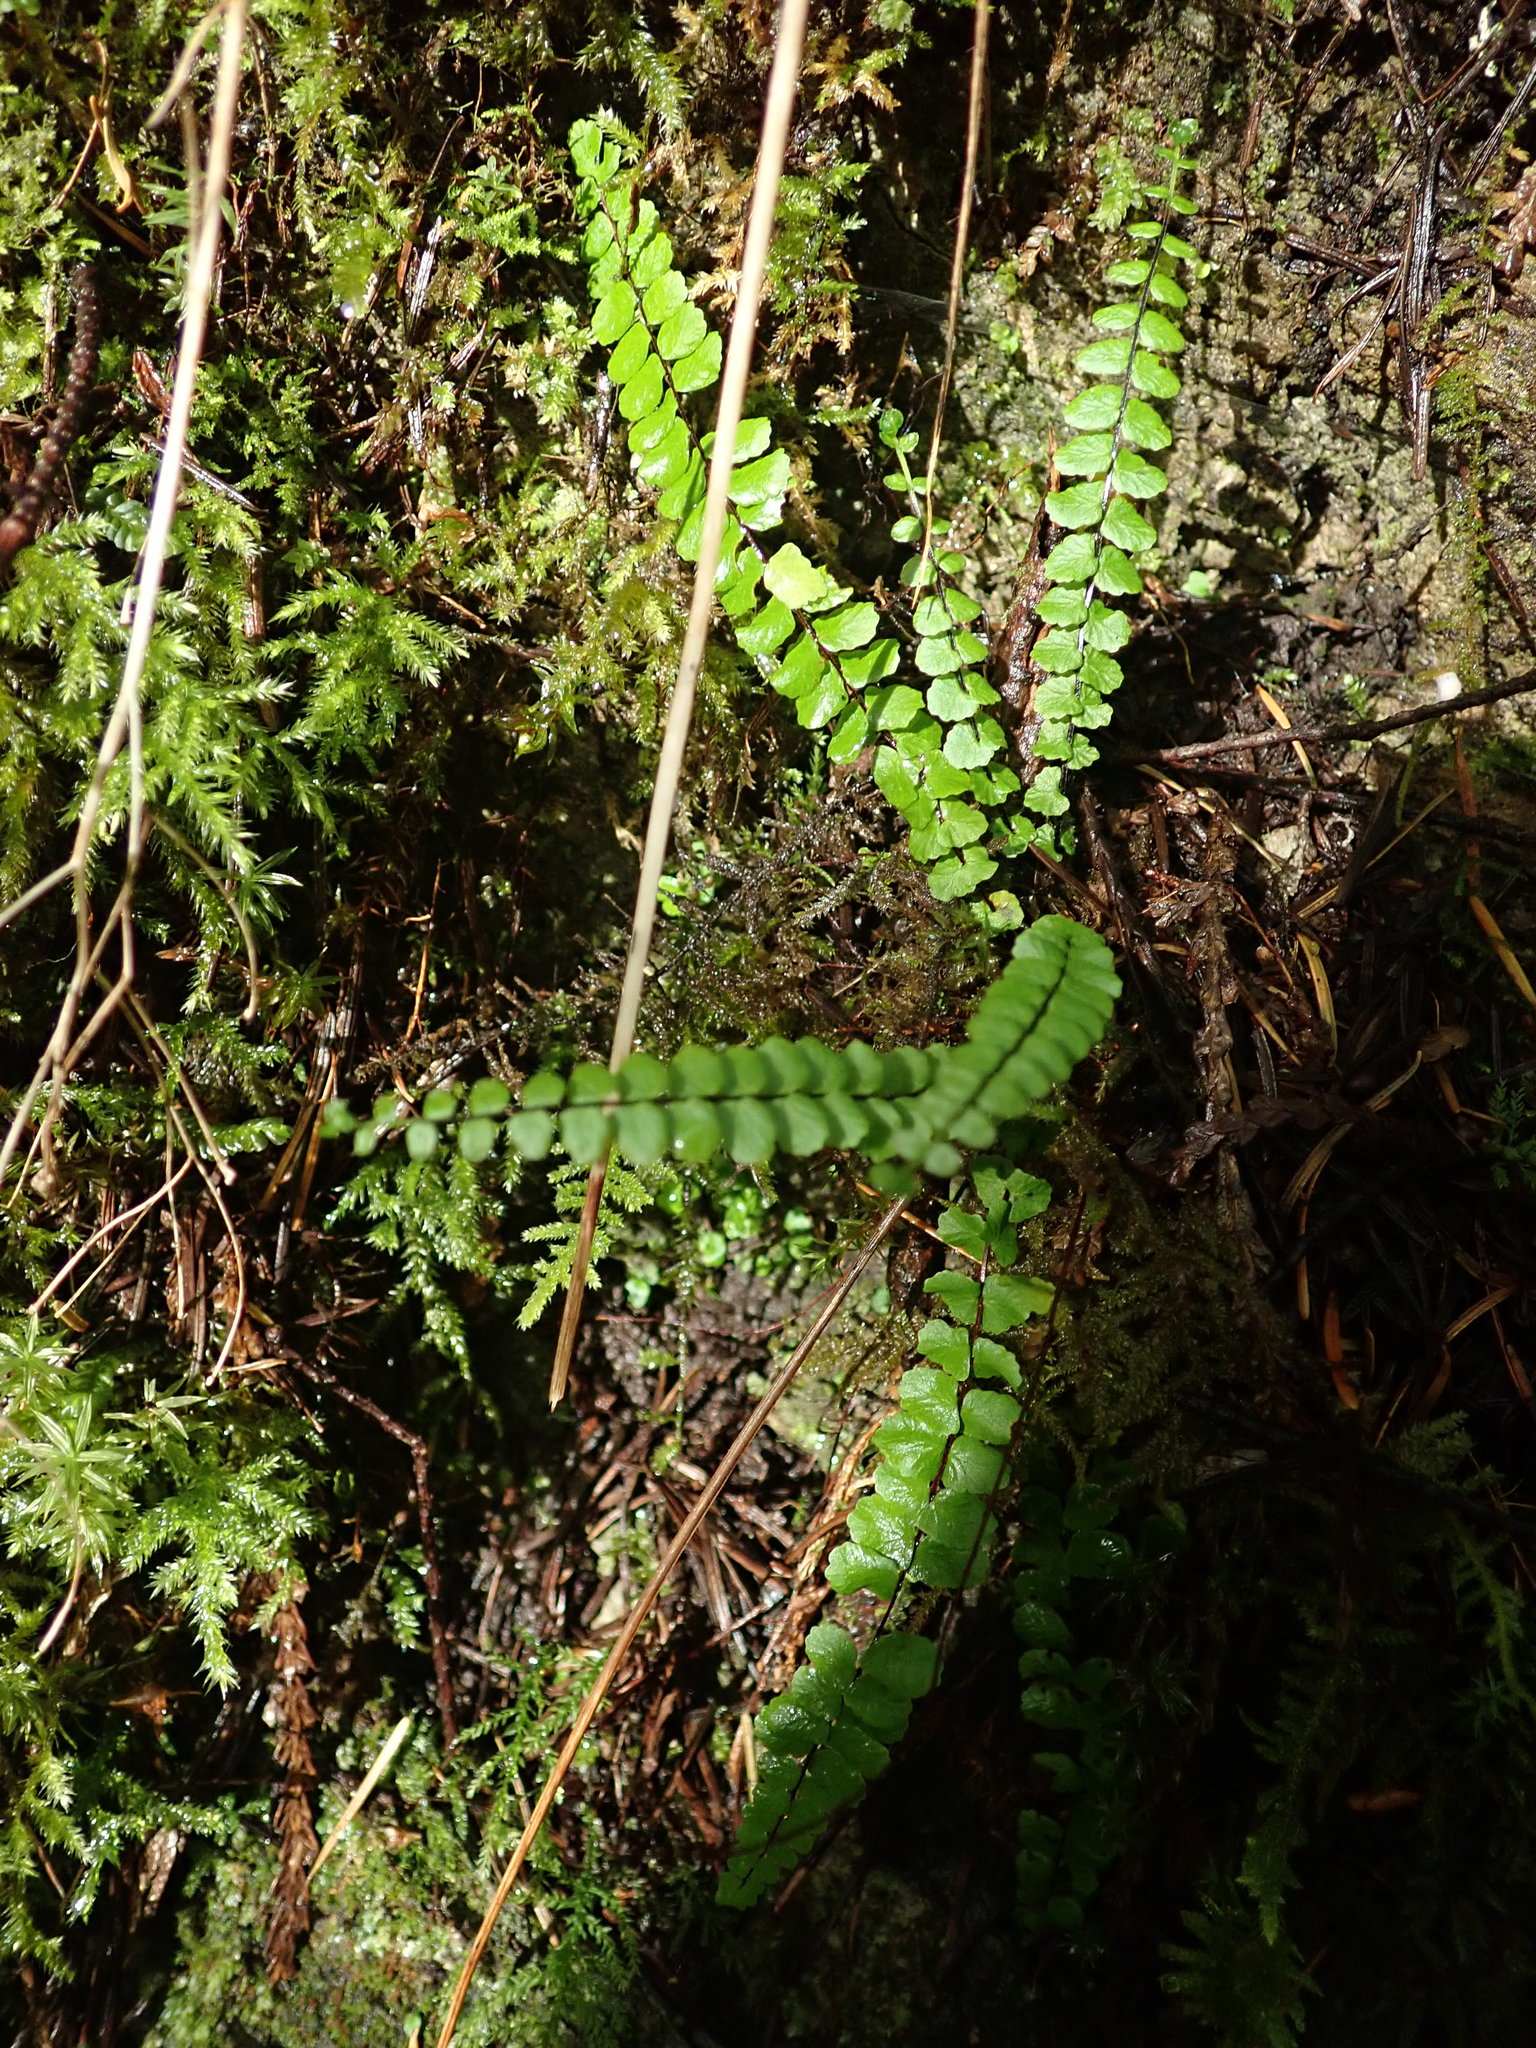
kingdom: Plantae
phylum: Tracheophyta
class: Polypodiopsida
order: Polypodiales
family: Aspleniaceae
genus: Asplenium
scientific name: Asplenium trichomanes
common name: Maidenhair spleenwort
